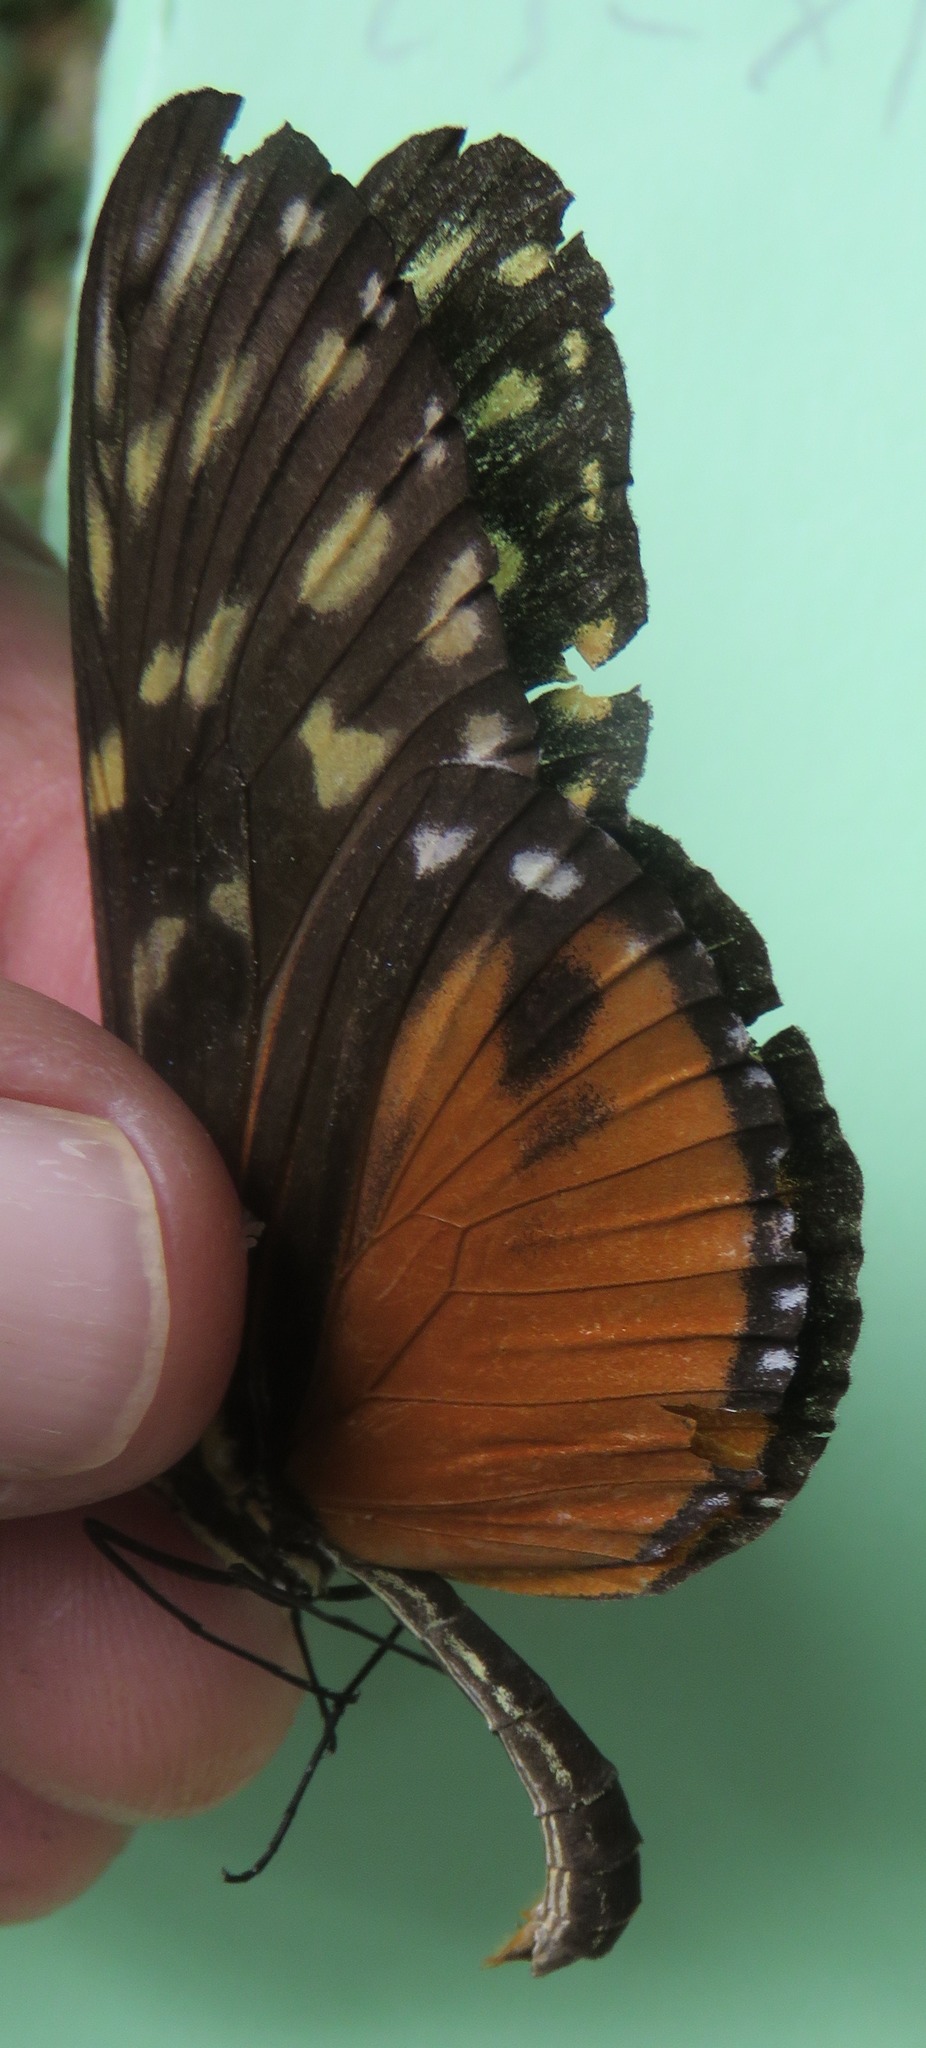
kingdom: Animalia
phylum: Arthropoda
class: Insecta
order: Lepidoptera
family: Nymphalidae
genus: Heliconius
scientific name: Heliconius hecale
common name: Tiger longwing
